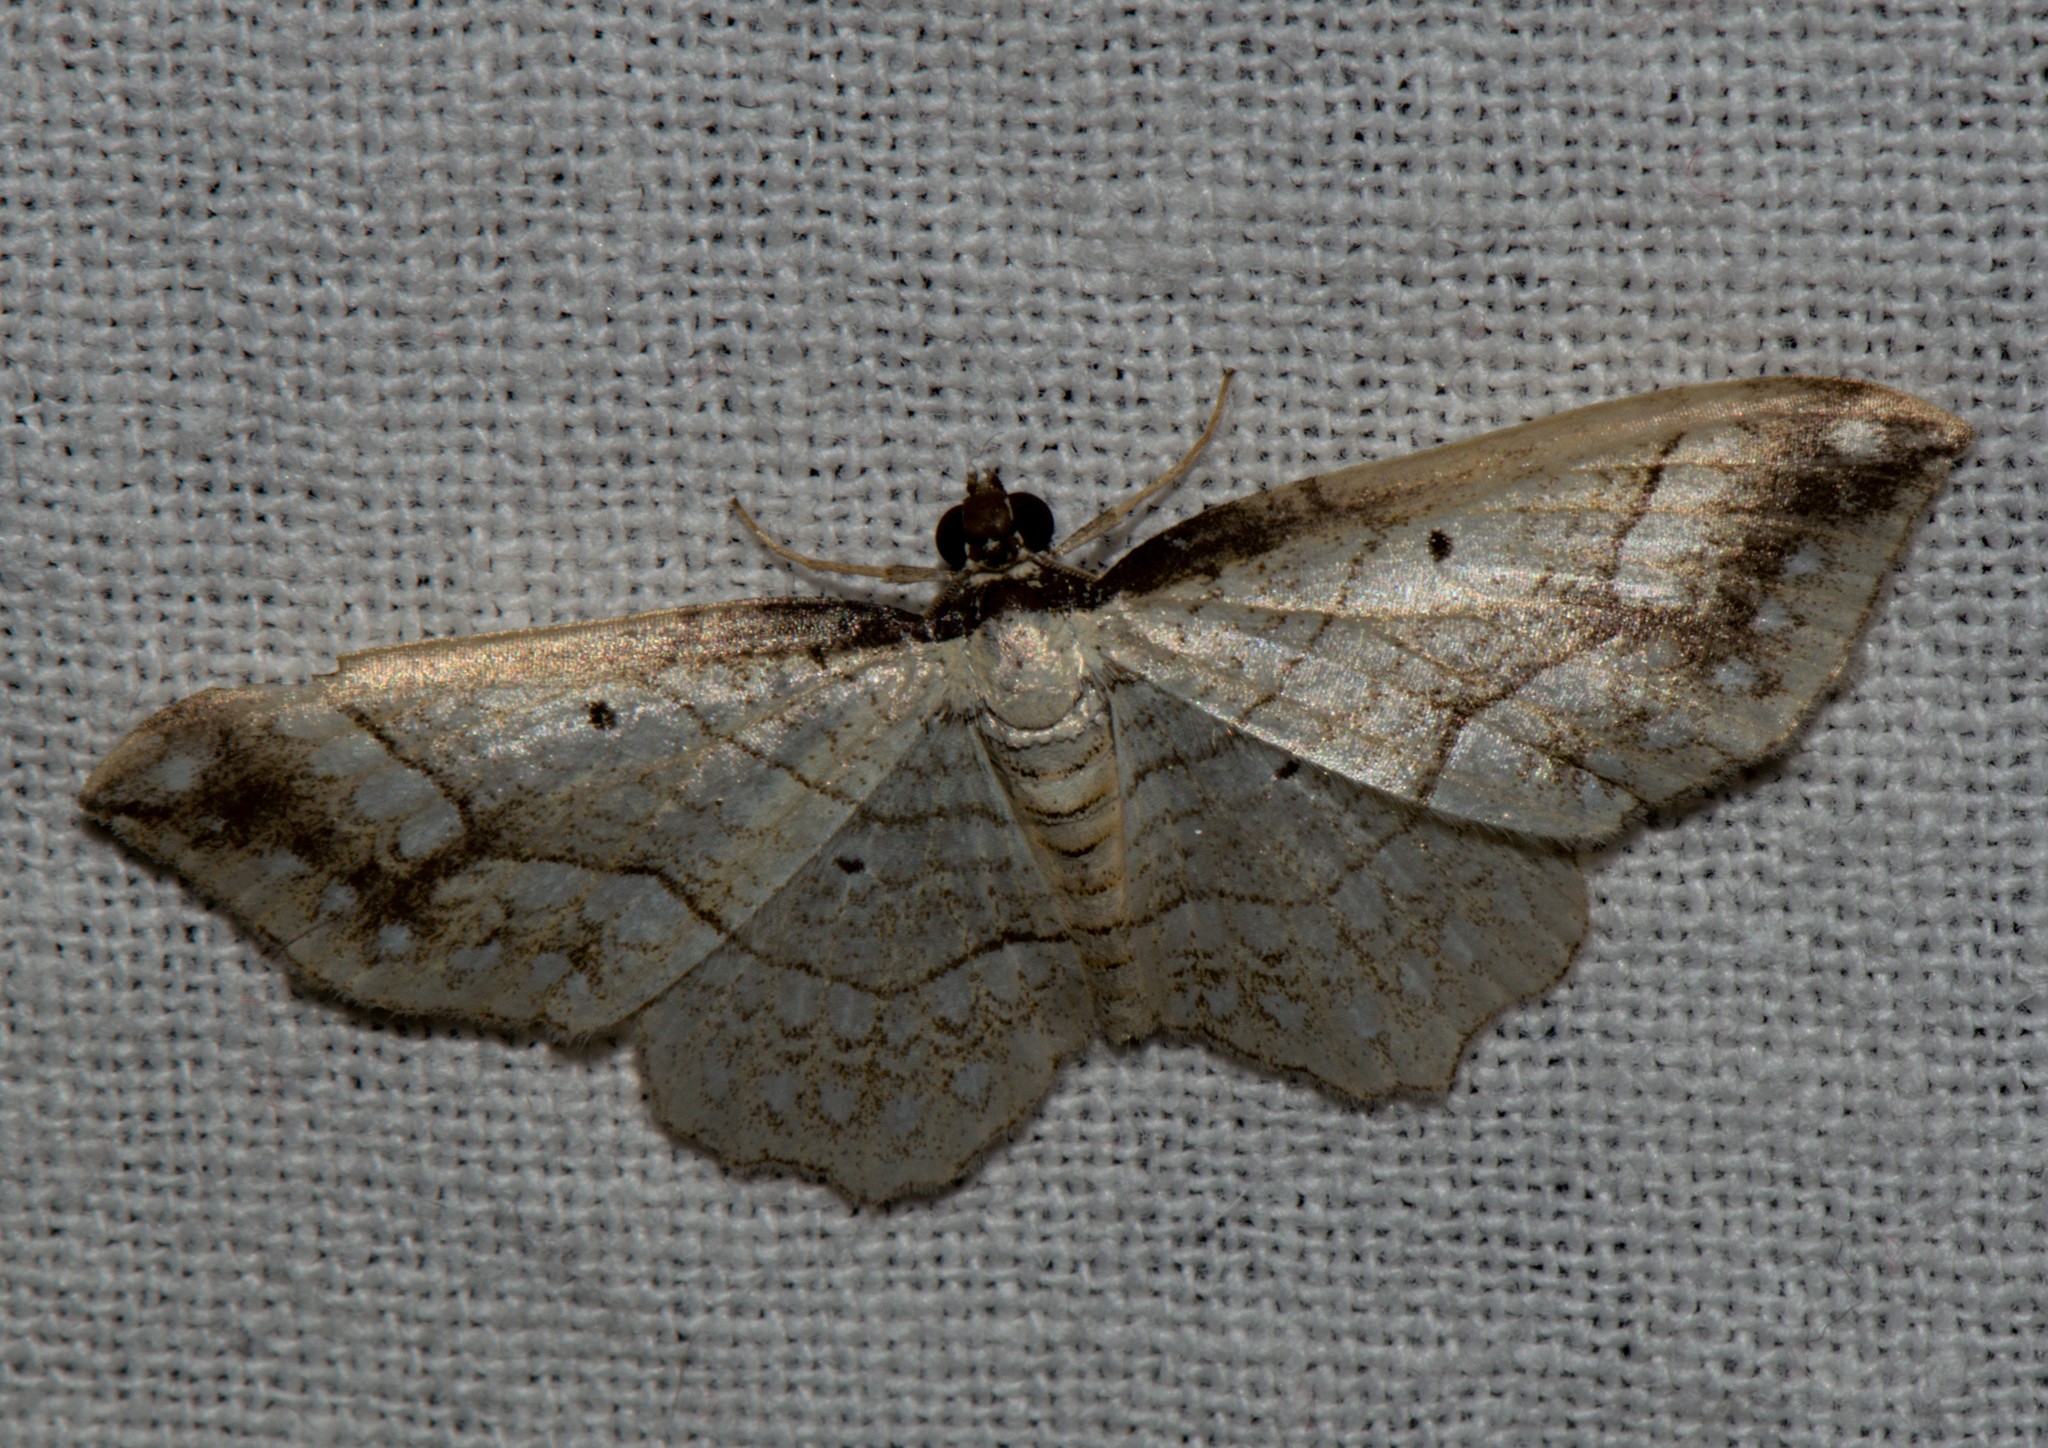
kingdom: Animalia
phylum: Arthropoda
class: Insecta
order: Lepidoptera
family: Geometridae
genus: Laciniodes
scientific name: Laciniodes plurilinearia
